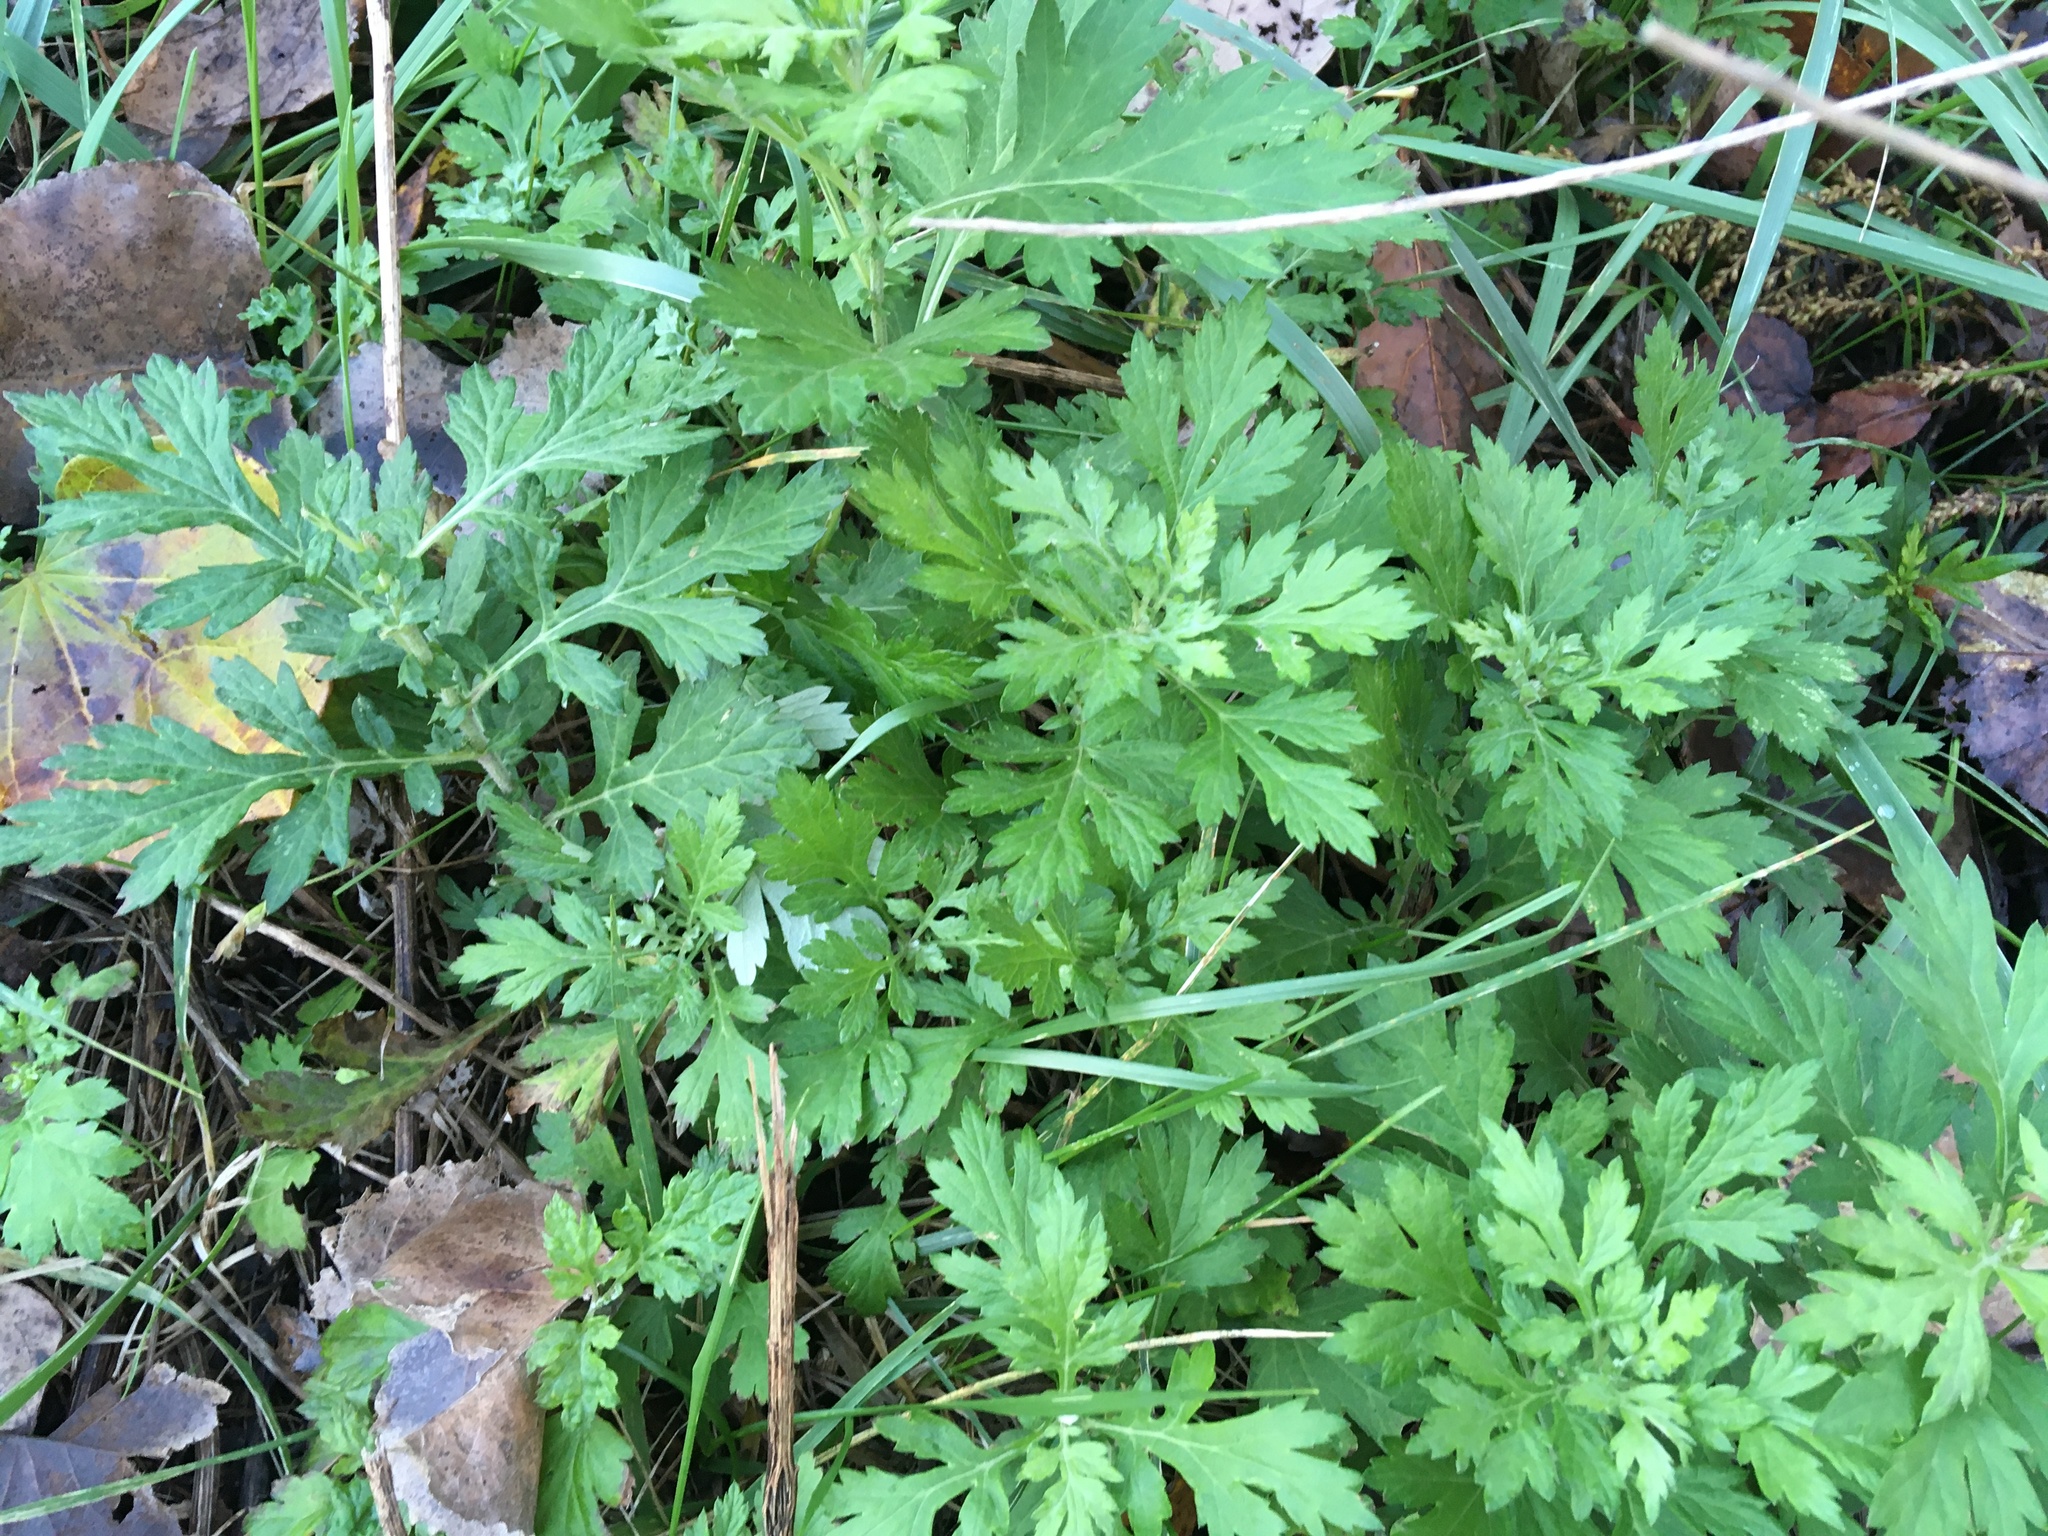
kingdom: Plantae
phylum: Tracheophyta
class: Magnoliopsida
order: Asterales
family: Asteraceae
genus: Artemisia
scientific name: Artemisia vulgaris
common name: Mugwort
